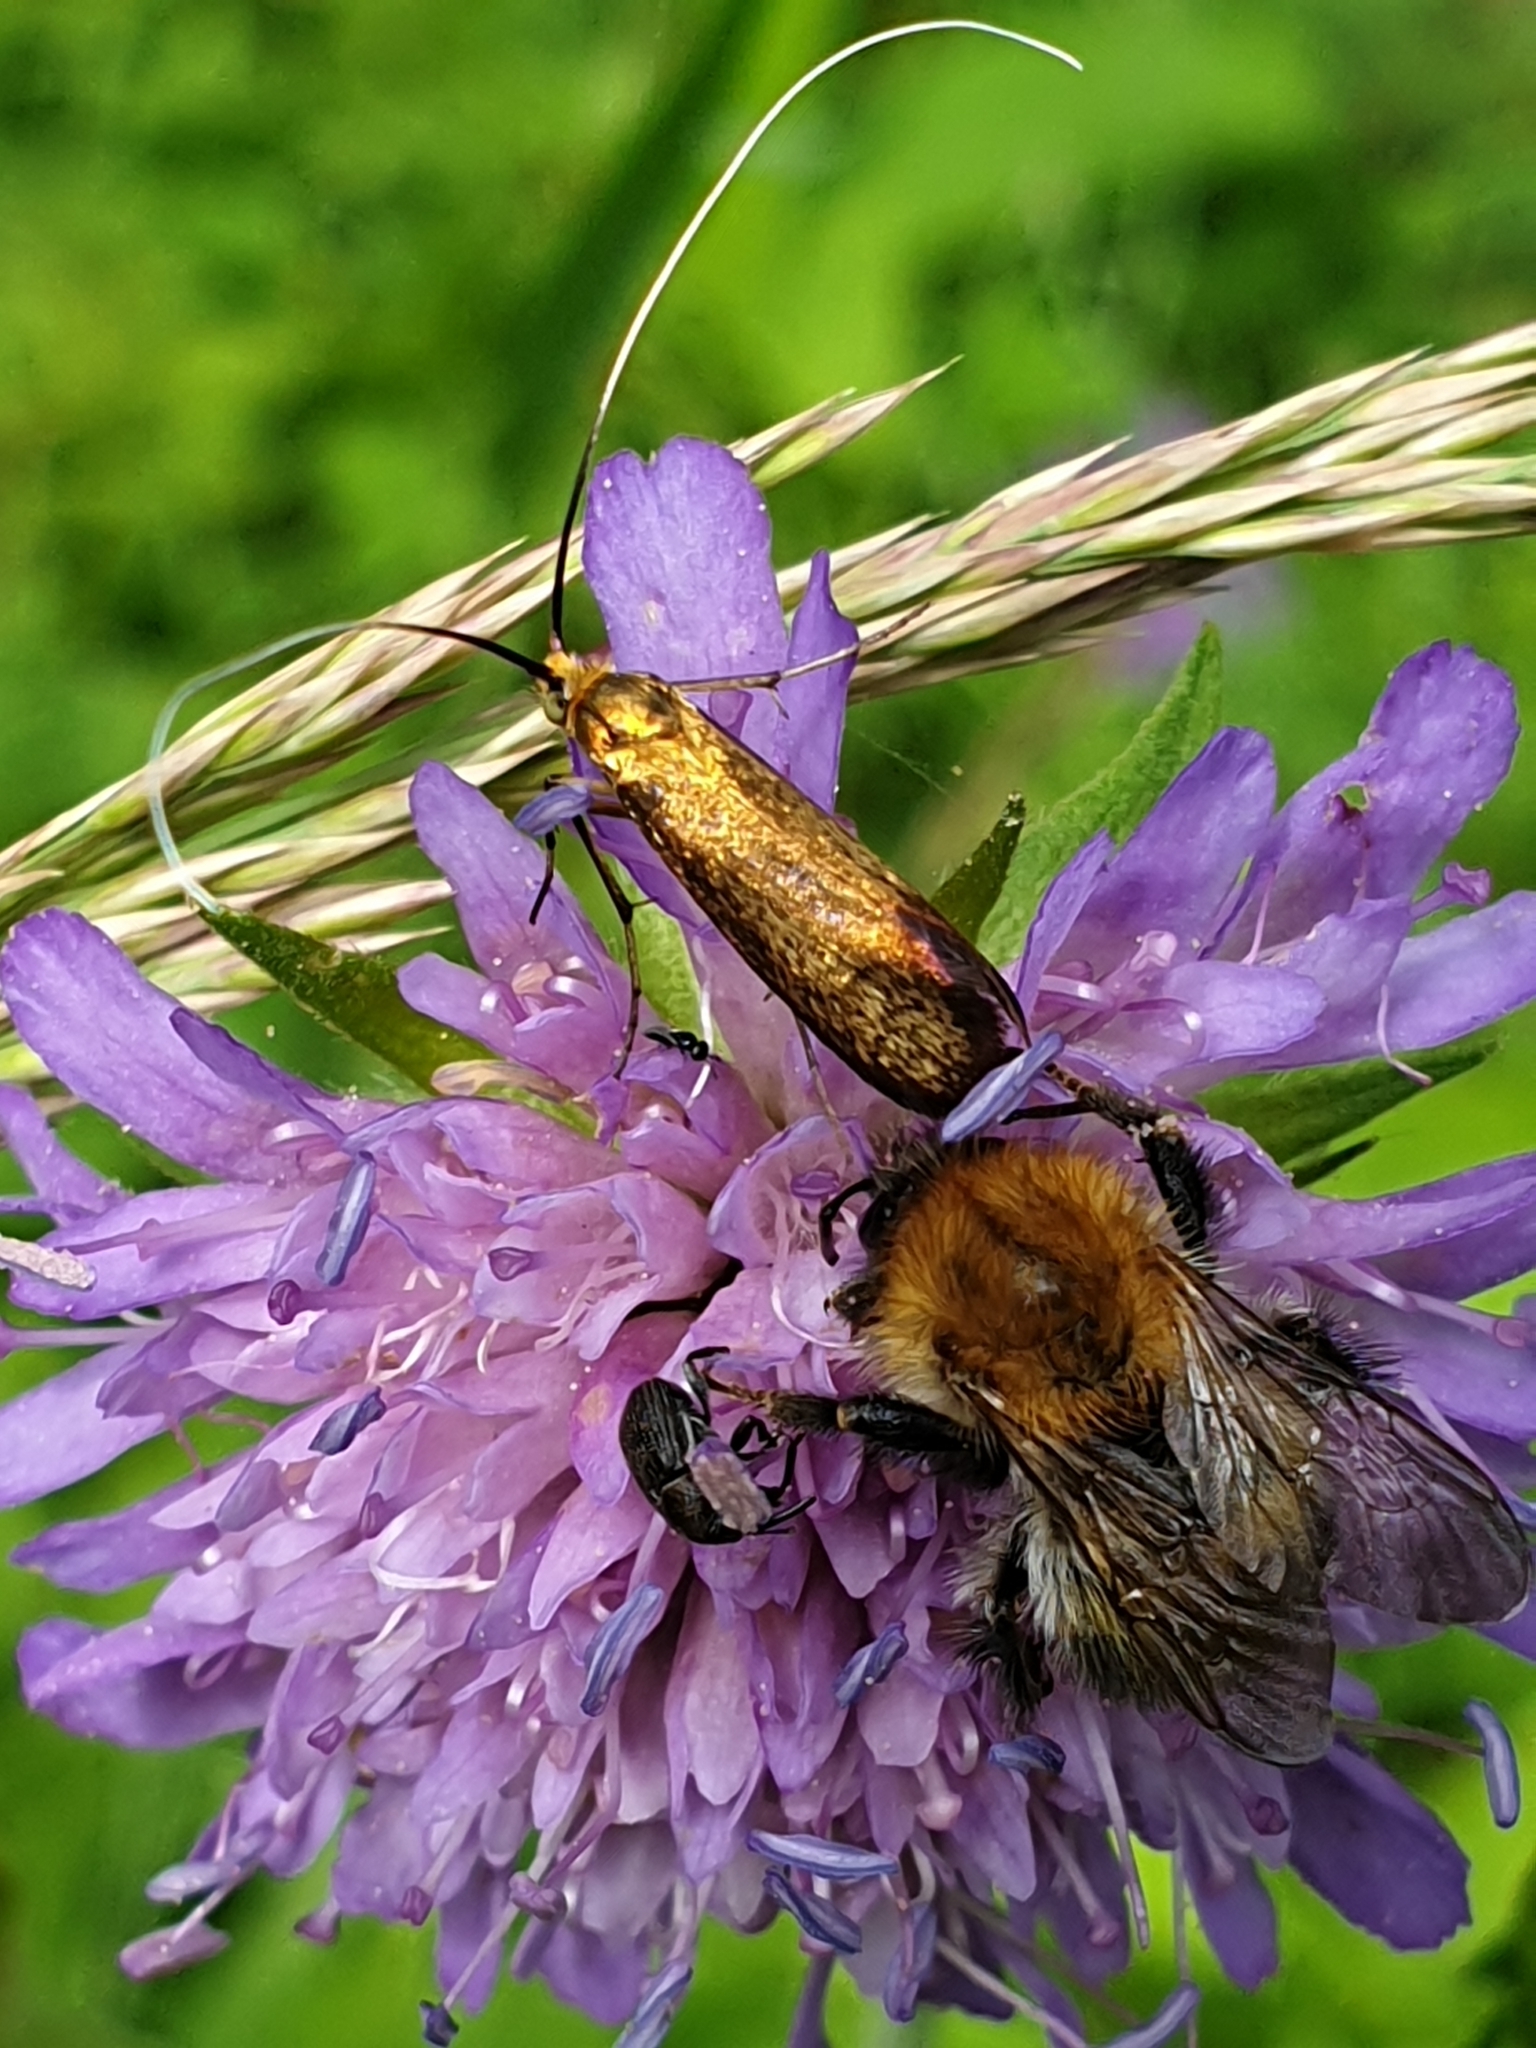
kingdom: Animalia
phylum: Arthropoda
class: Insecta
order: Lepidoptera
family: Adelidae
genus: Nemophora
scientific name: Nemophora metallica
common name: Brassy long-horn
